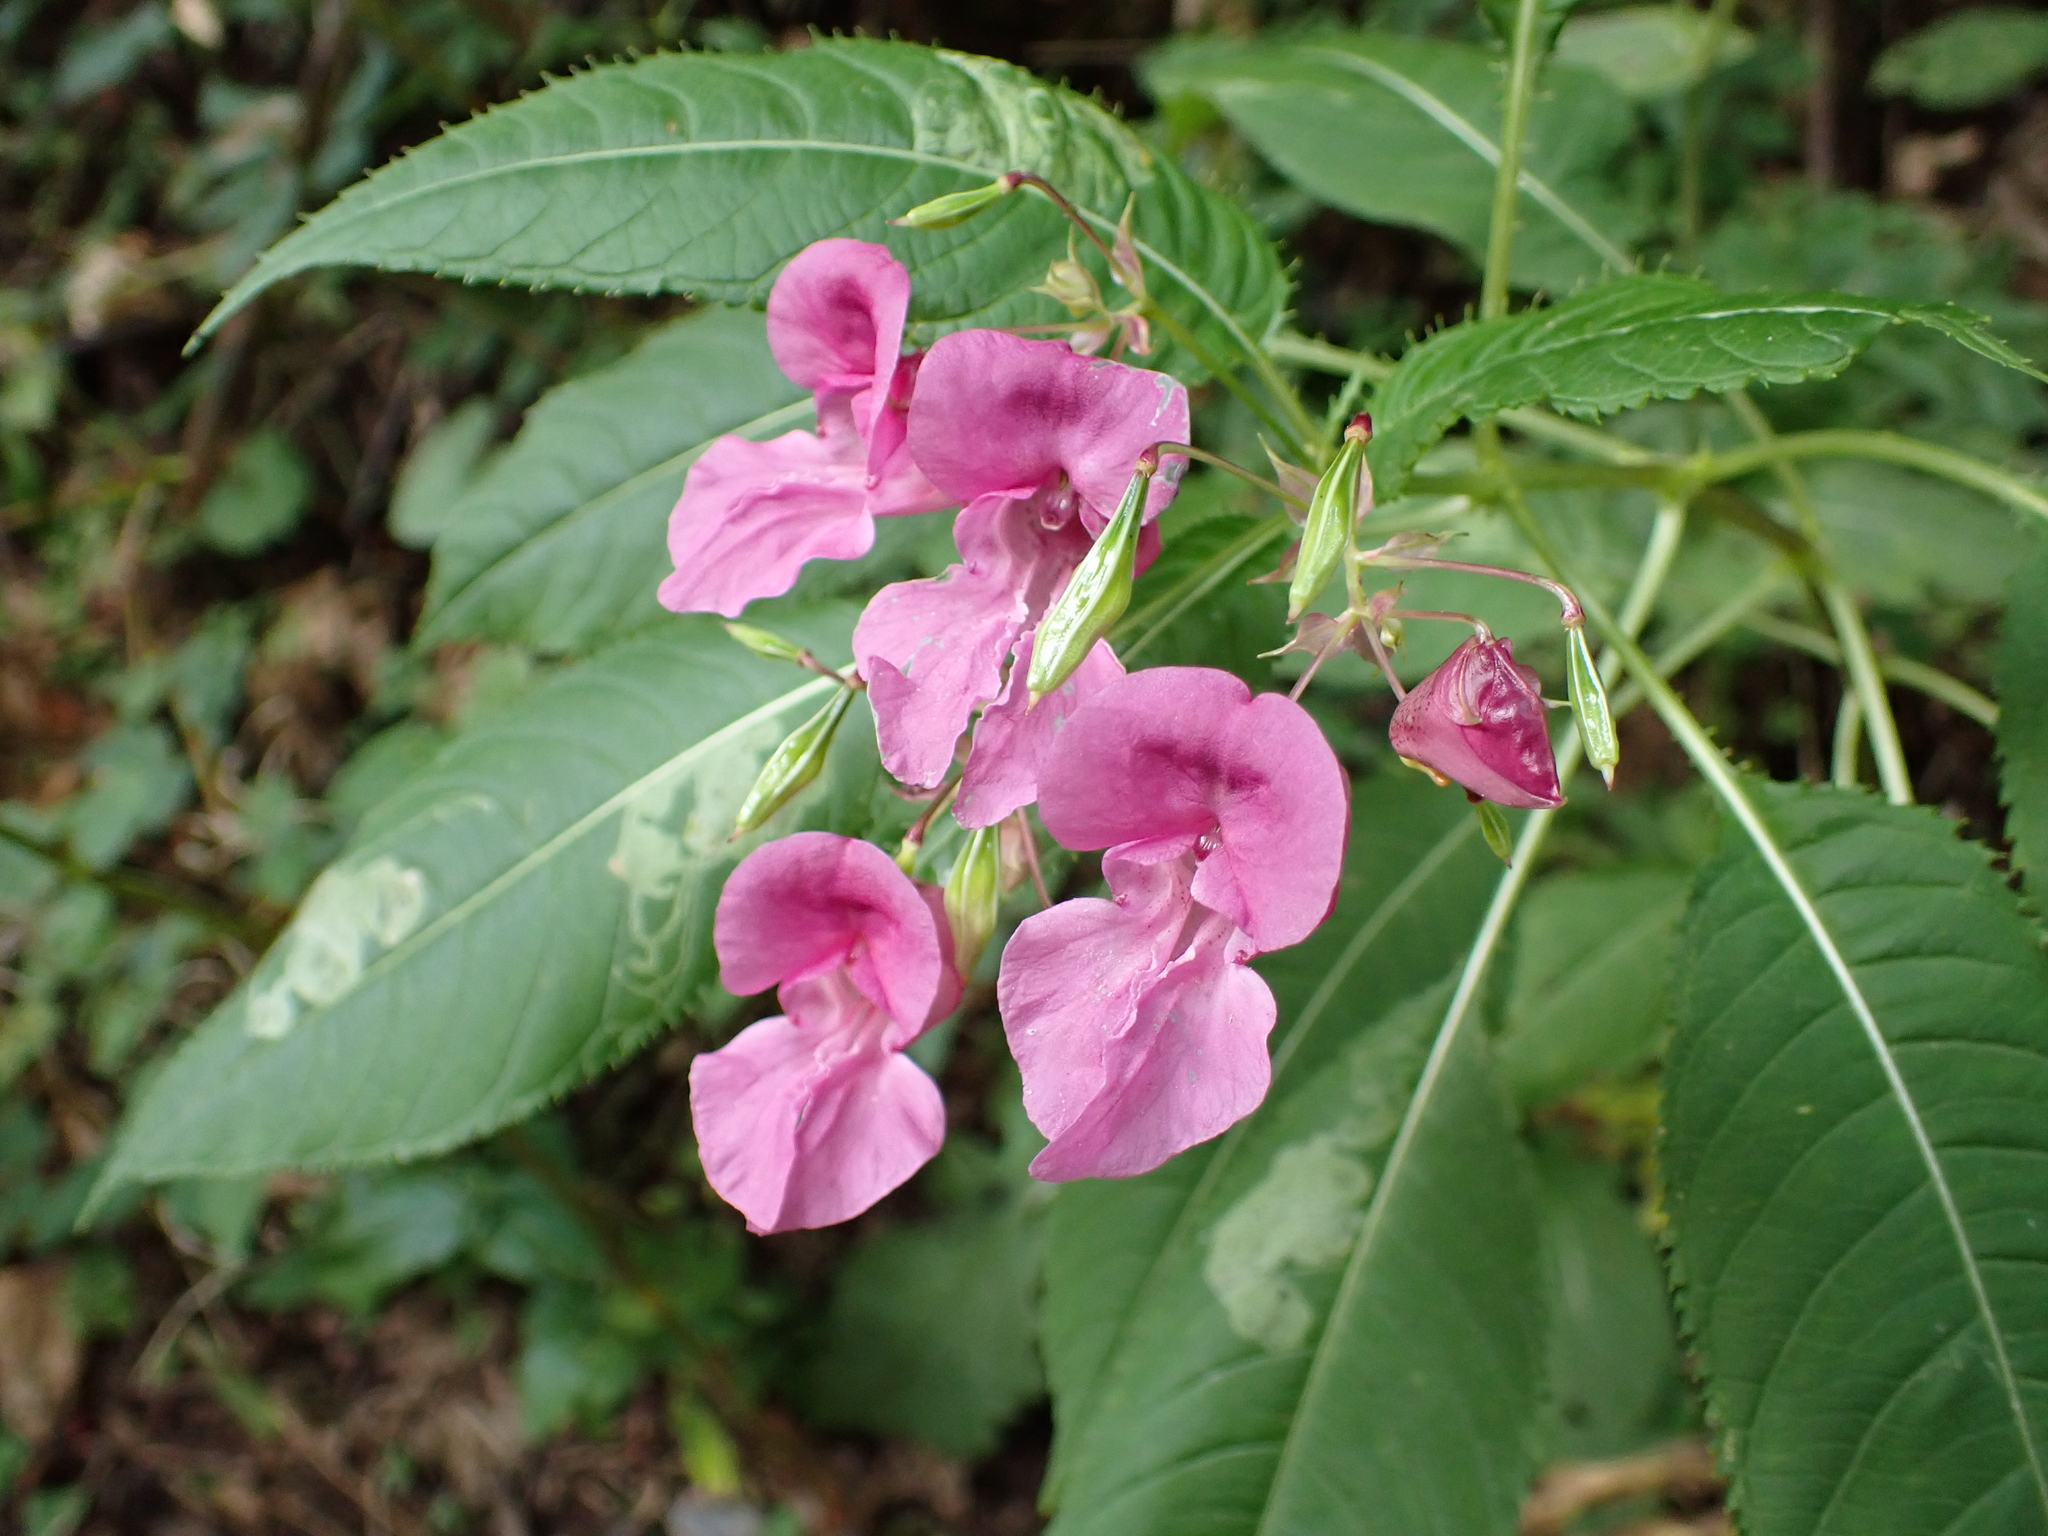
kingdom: Plantae
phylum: Tracheophyta
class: Magnoliopsida
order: Ericales
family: Balsaminaceae
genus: Impatiens
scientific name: Impatiens glandulifera
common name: Himalayan balsam
